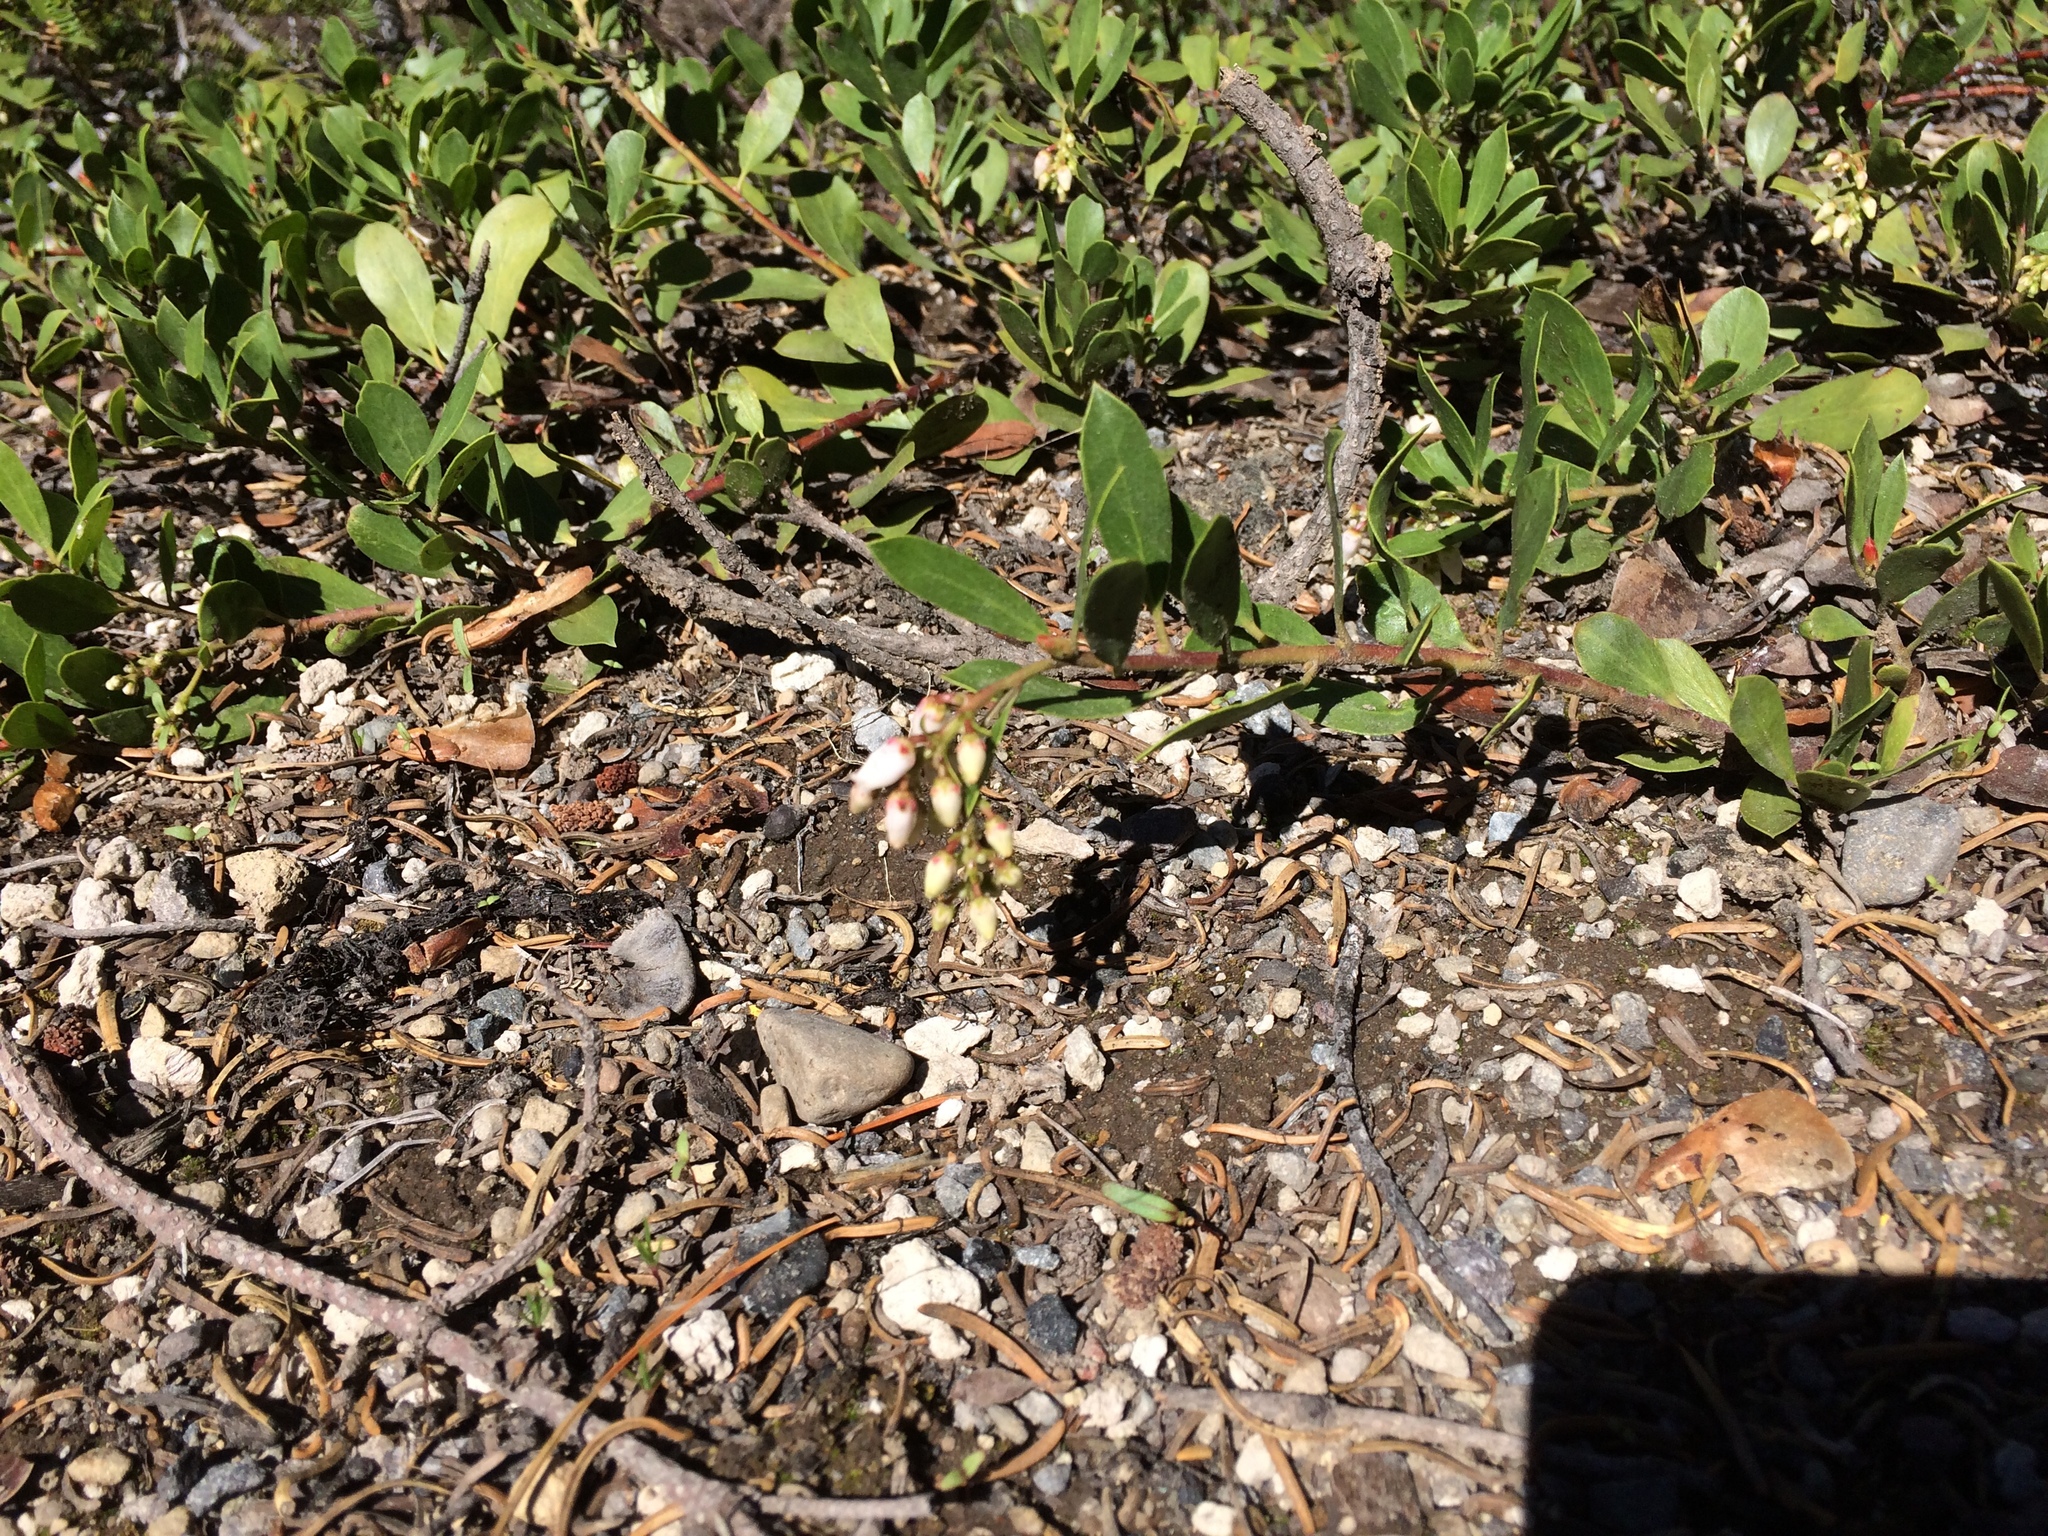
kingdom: Plantae
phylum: Tracheophyta
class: Magnoliopsida
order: Ericales
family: Ericaceae
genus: Arctostaphylos
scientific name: Arctostaphylos nevadensis
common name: Pinemat manzanita
